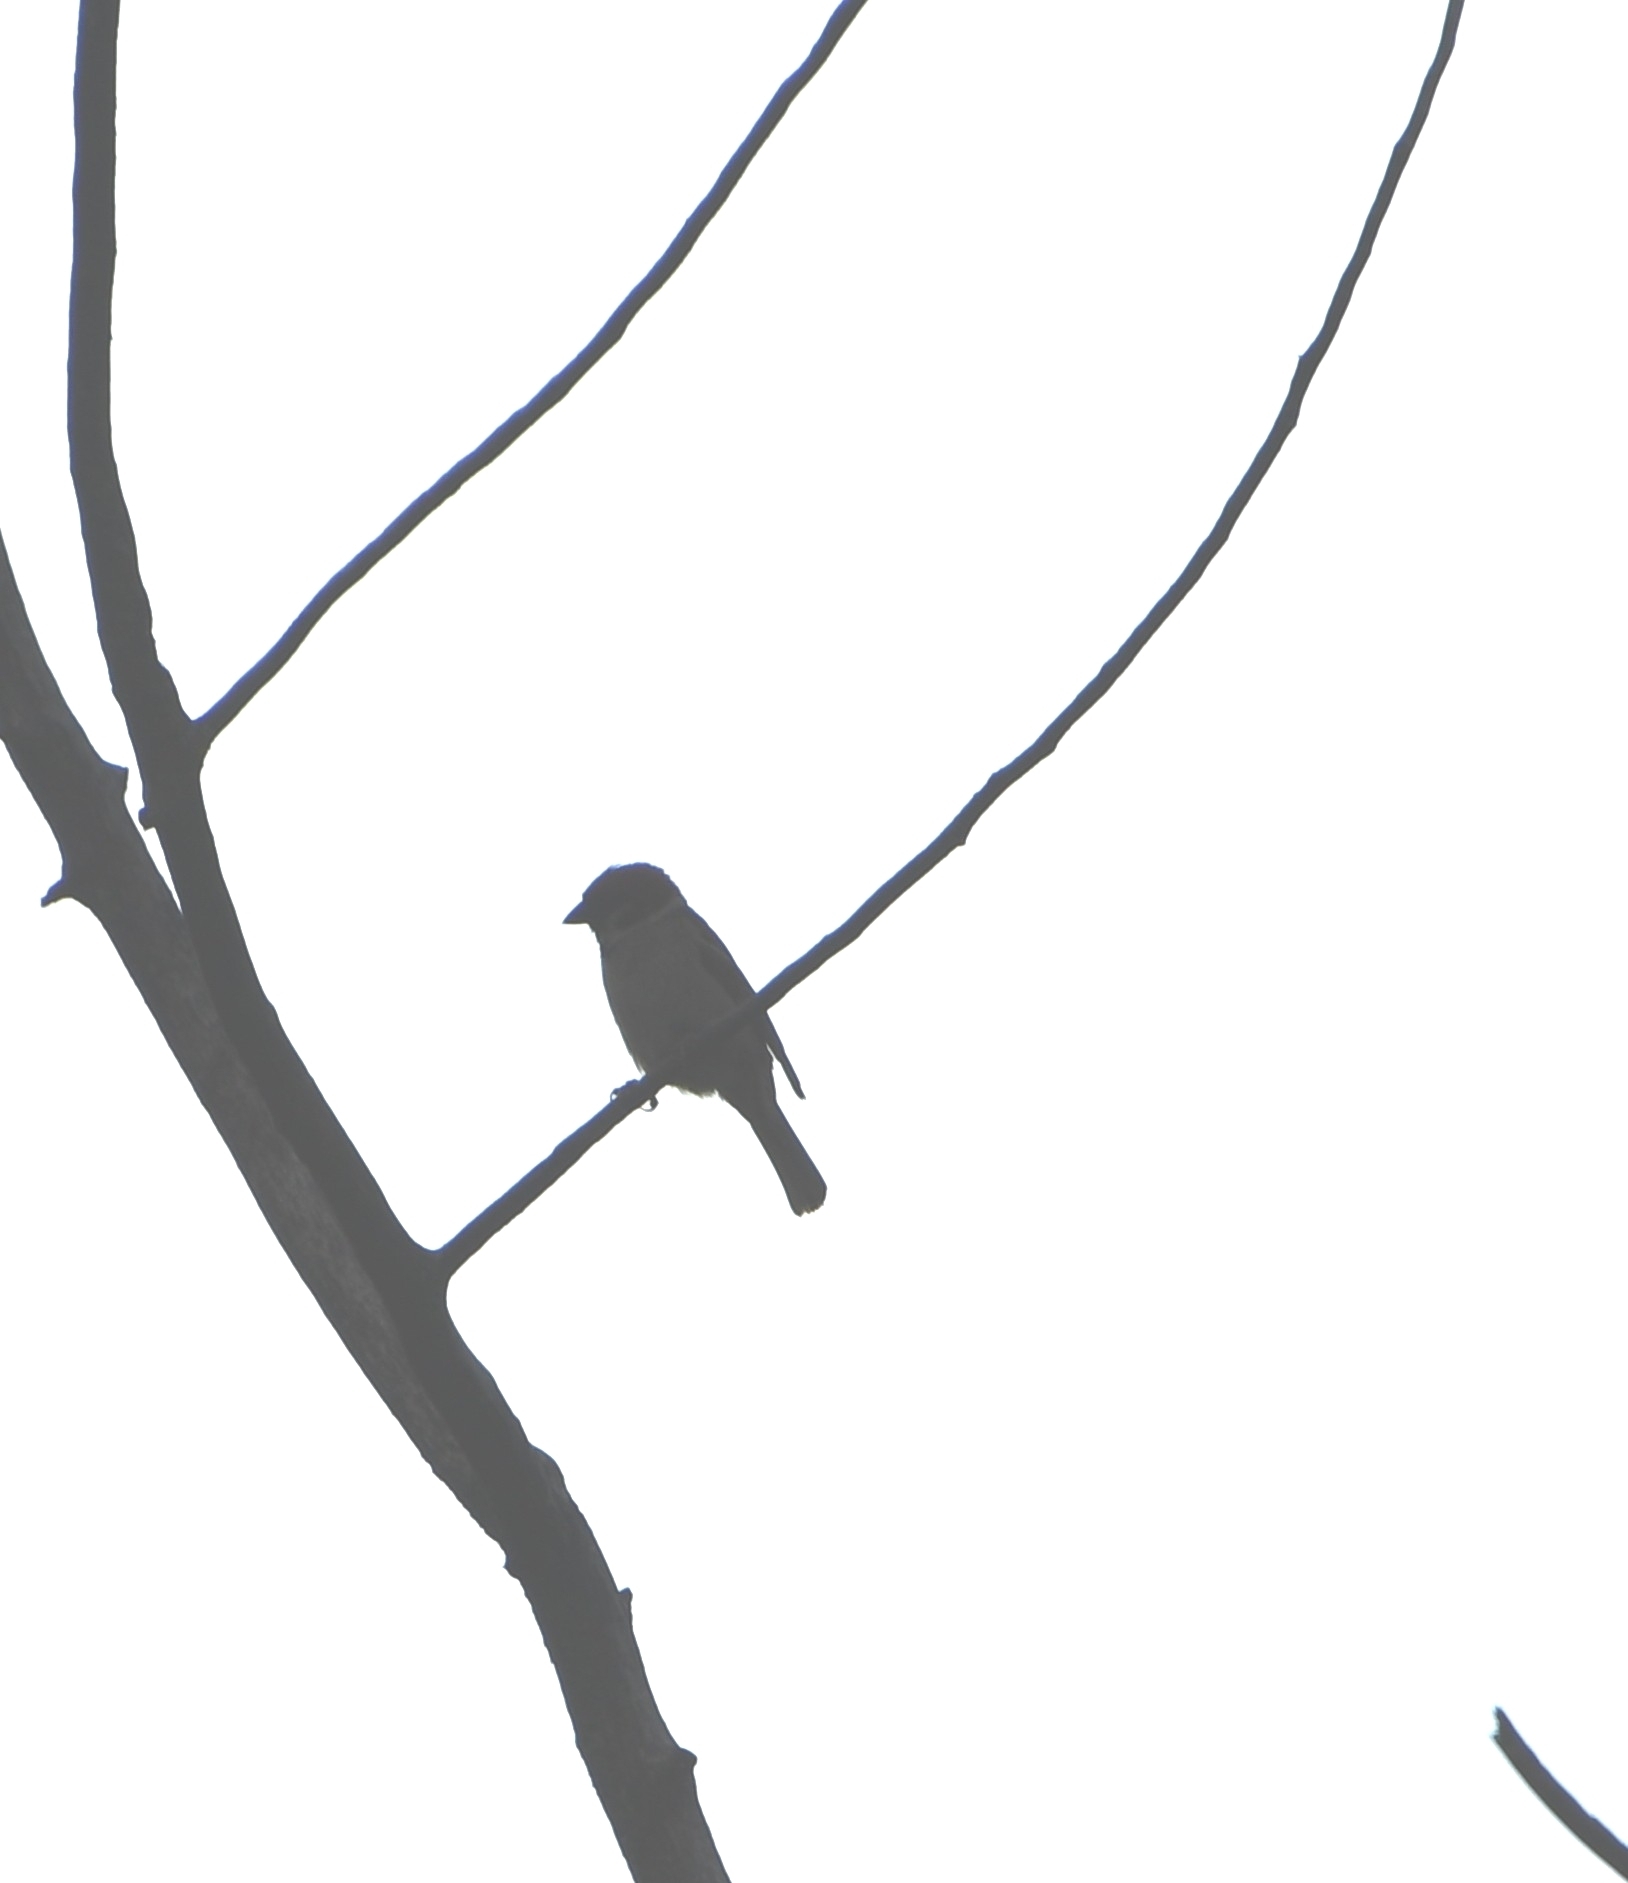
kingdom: Animalia
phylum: Chordata
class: Aves
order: Passeriformes
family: Passeridae
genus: Passer
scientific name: Passer montanus
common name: Eurasian tree sparrow
